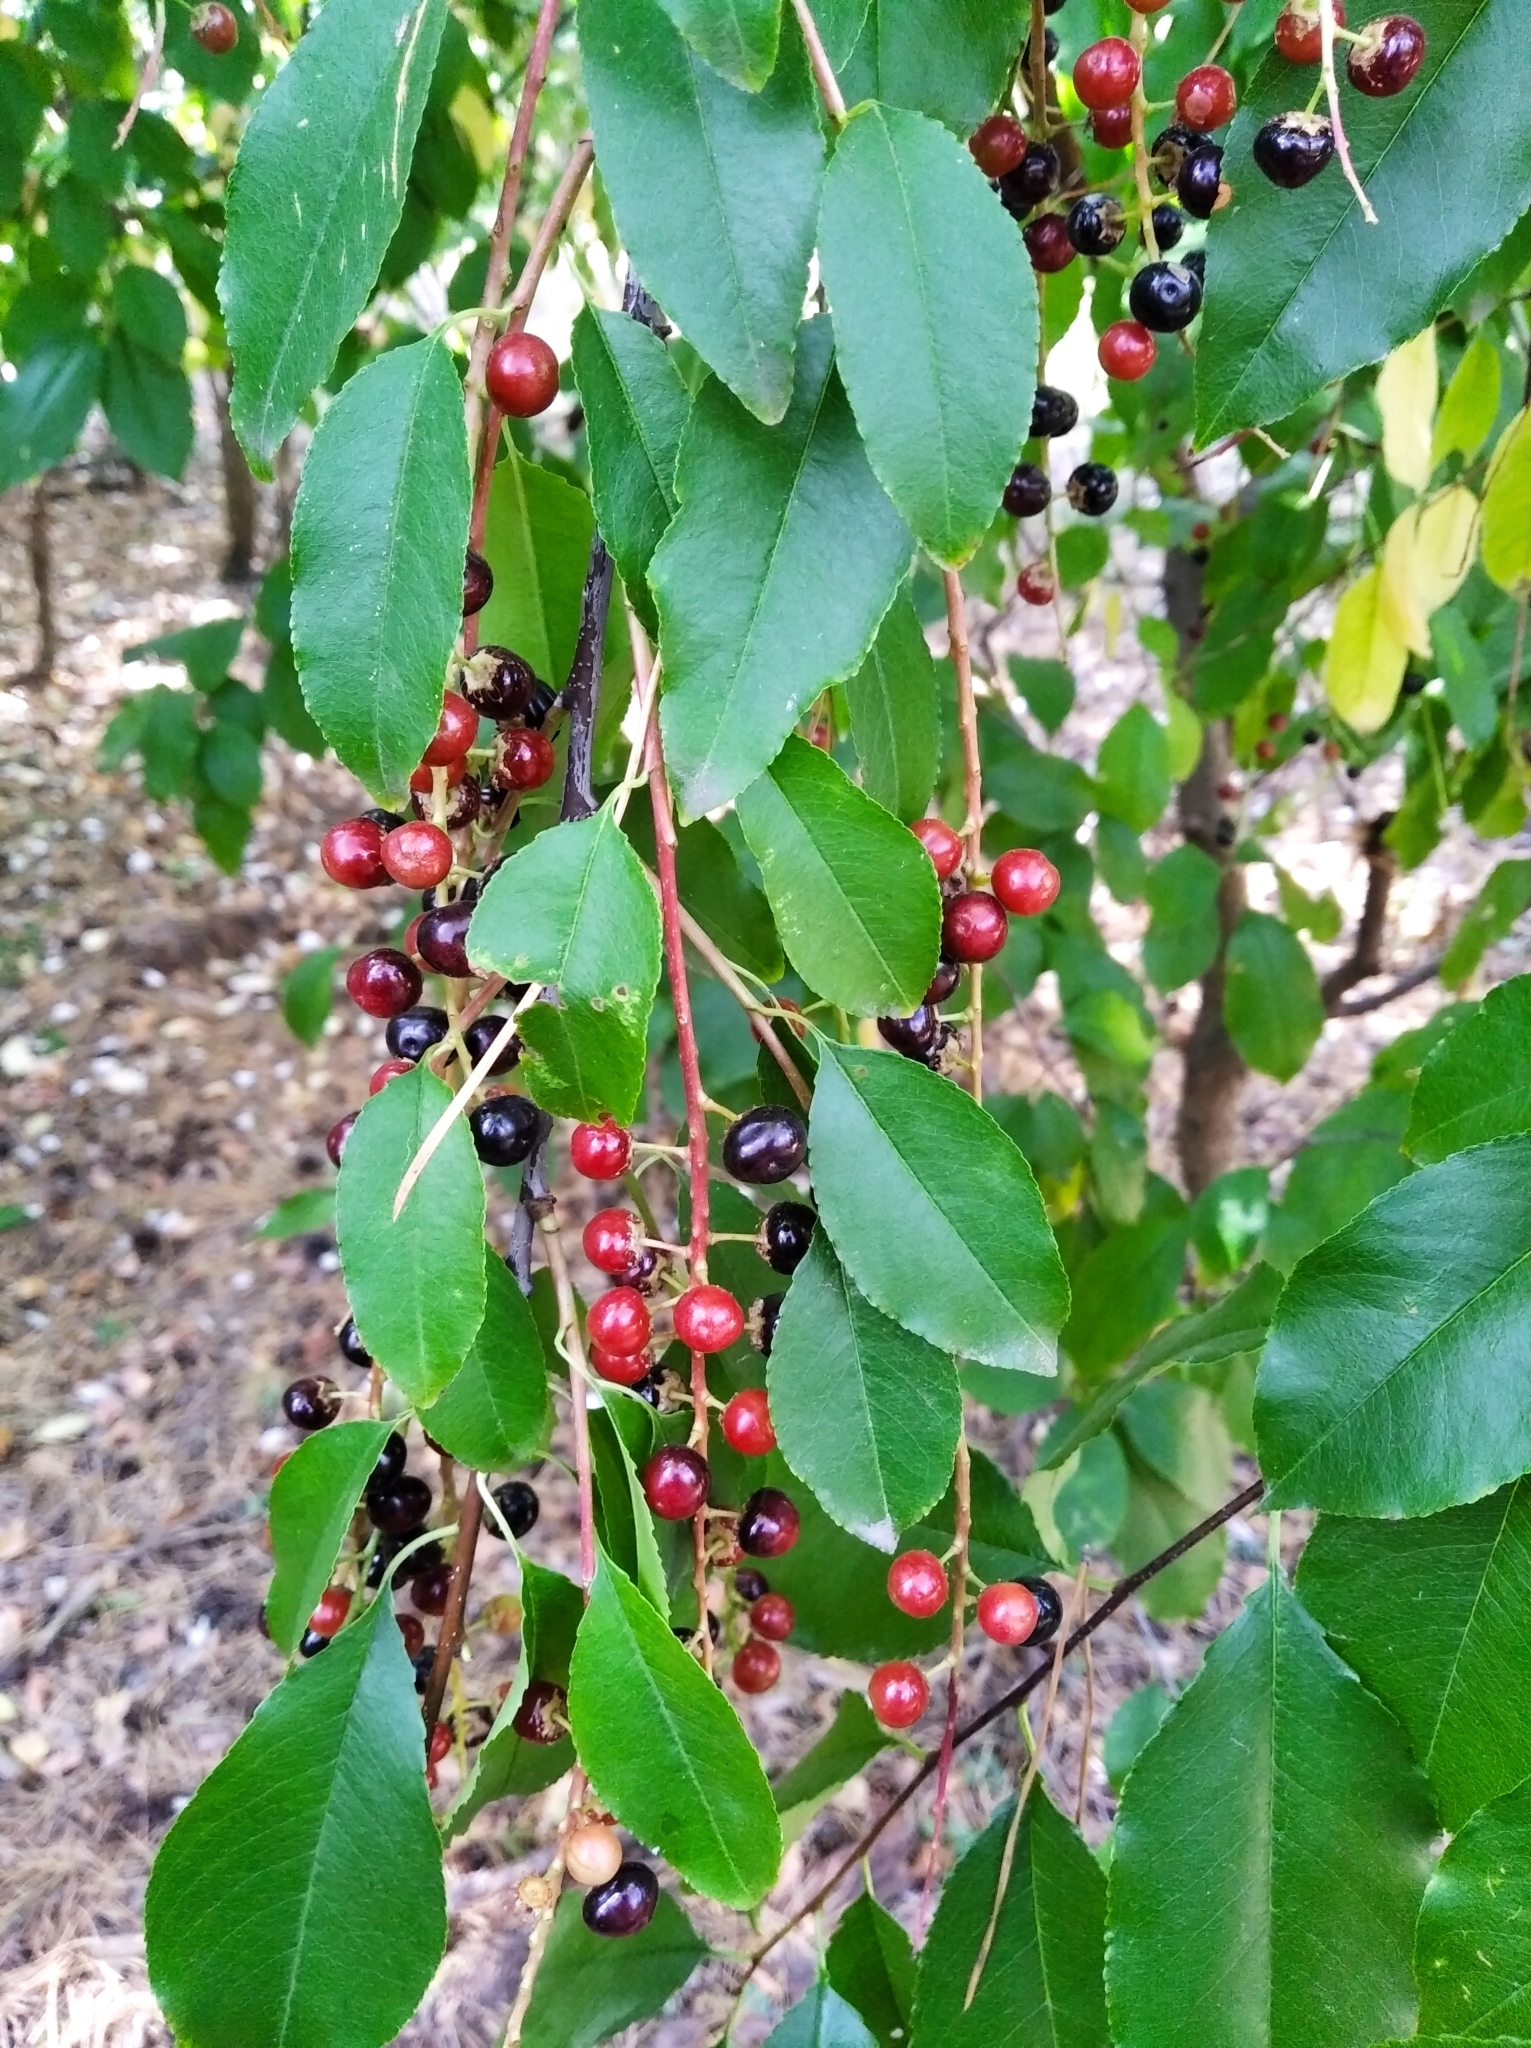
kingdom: Plantae
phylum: Tracheophyta
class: Magnoliopsida
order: Rosales
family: Rosaceae
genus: Prunus
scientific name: Prunus serotina
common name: Black cherry
